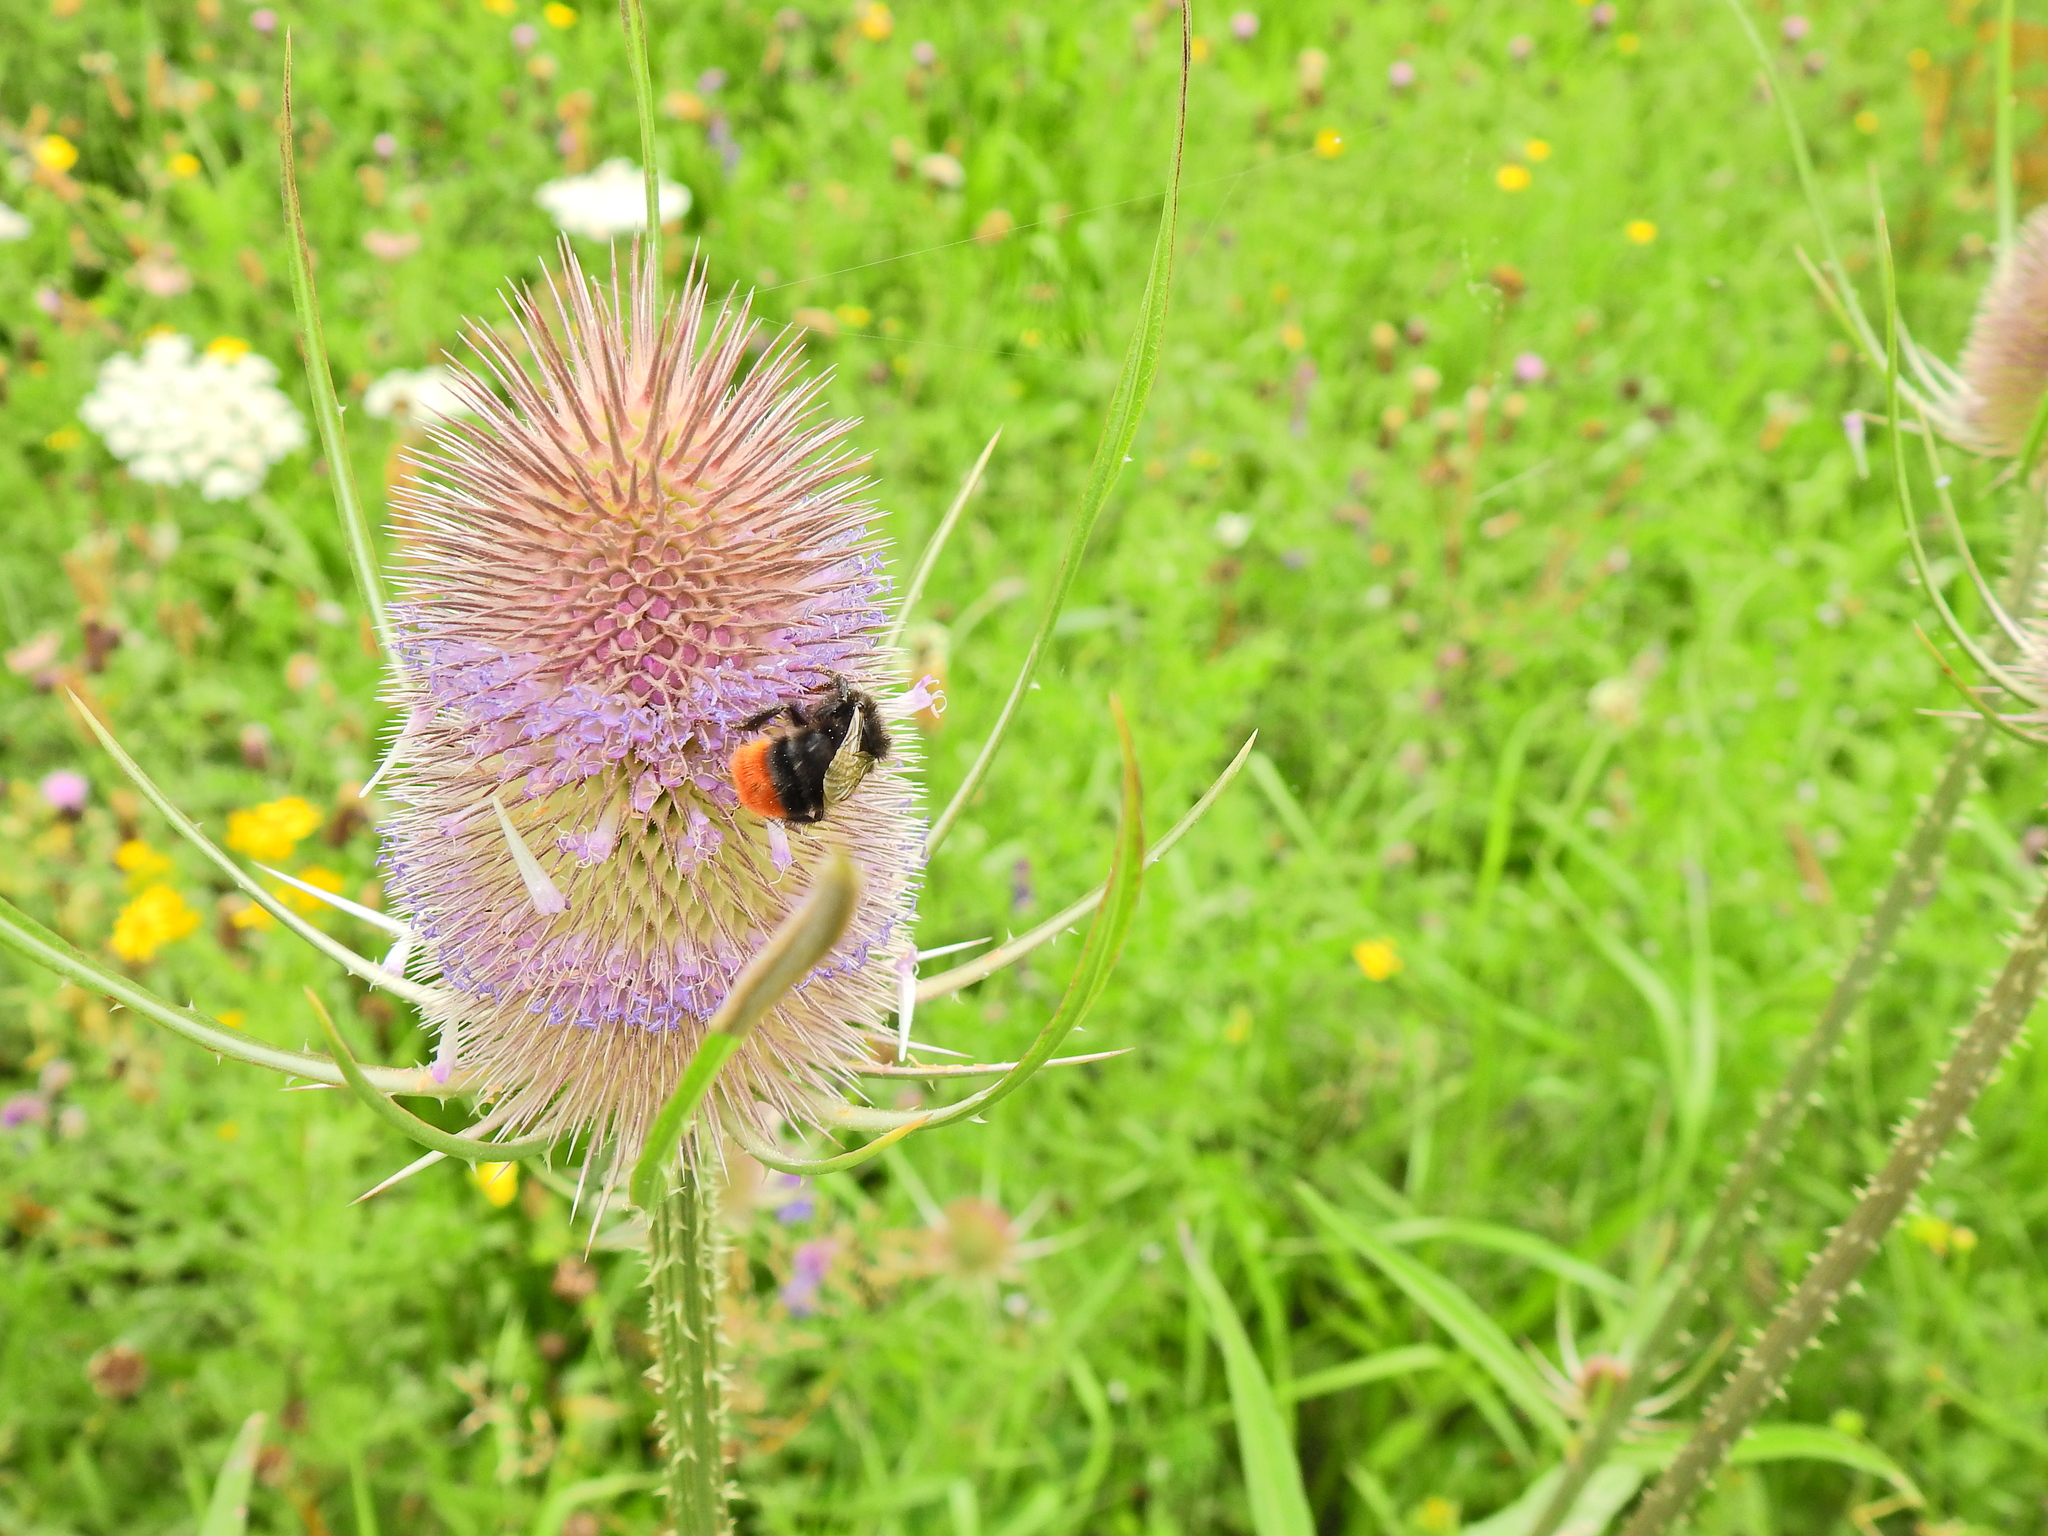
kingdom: Animalia
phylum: Arthropoda
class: Insecta
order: Hymenoptera
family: Apidae
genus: Bombus
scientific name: Bombus lapidarius
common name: Large red-tailed humble-bee
